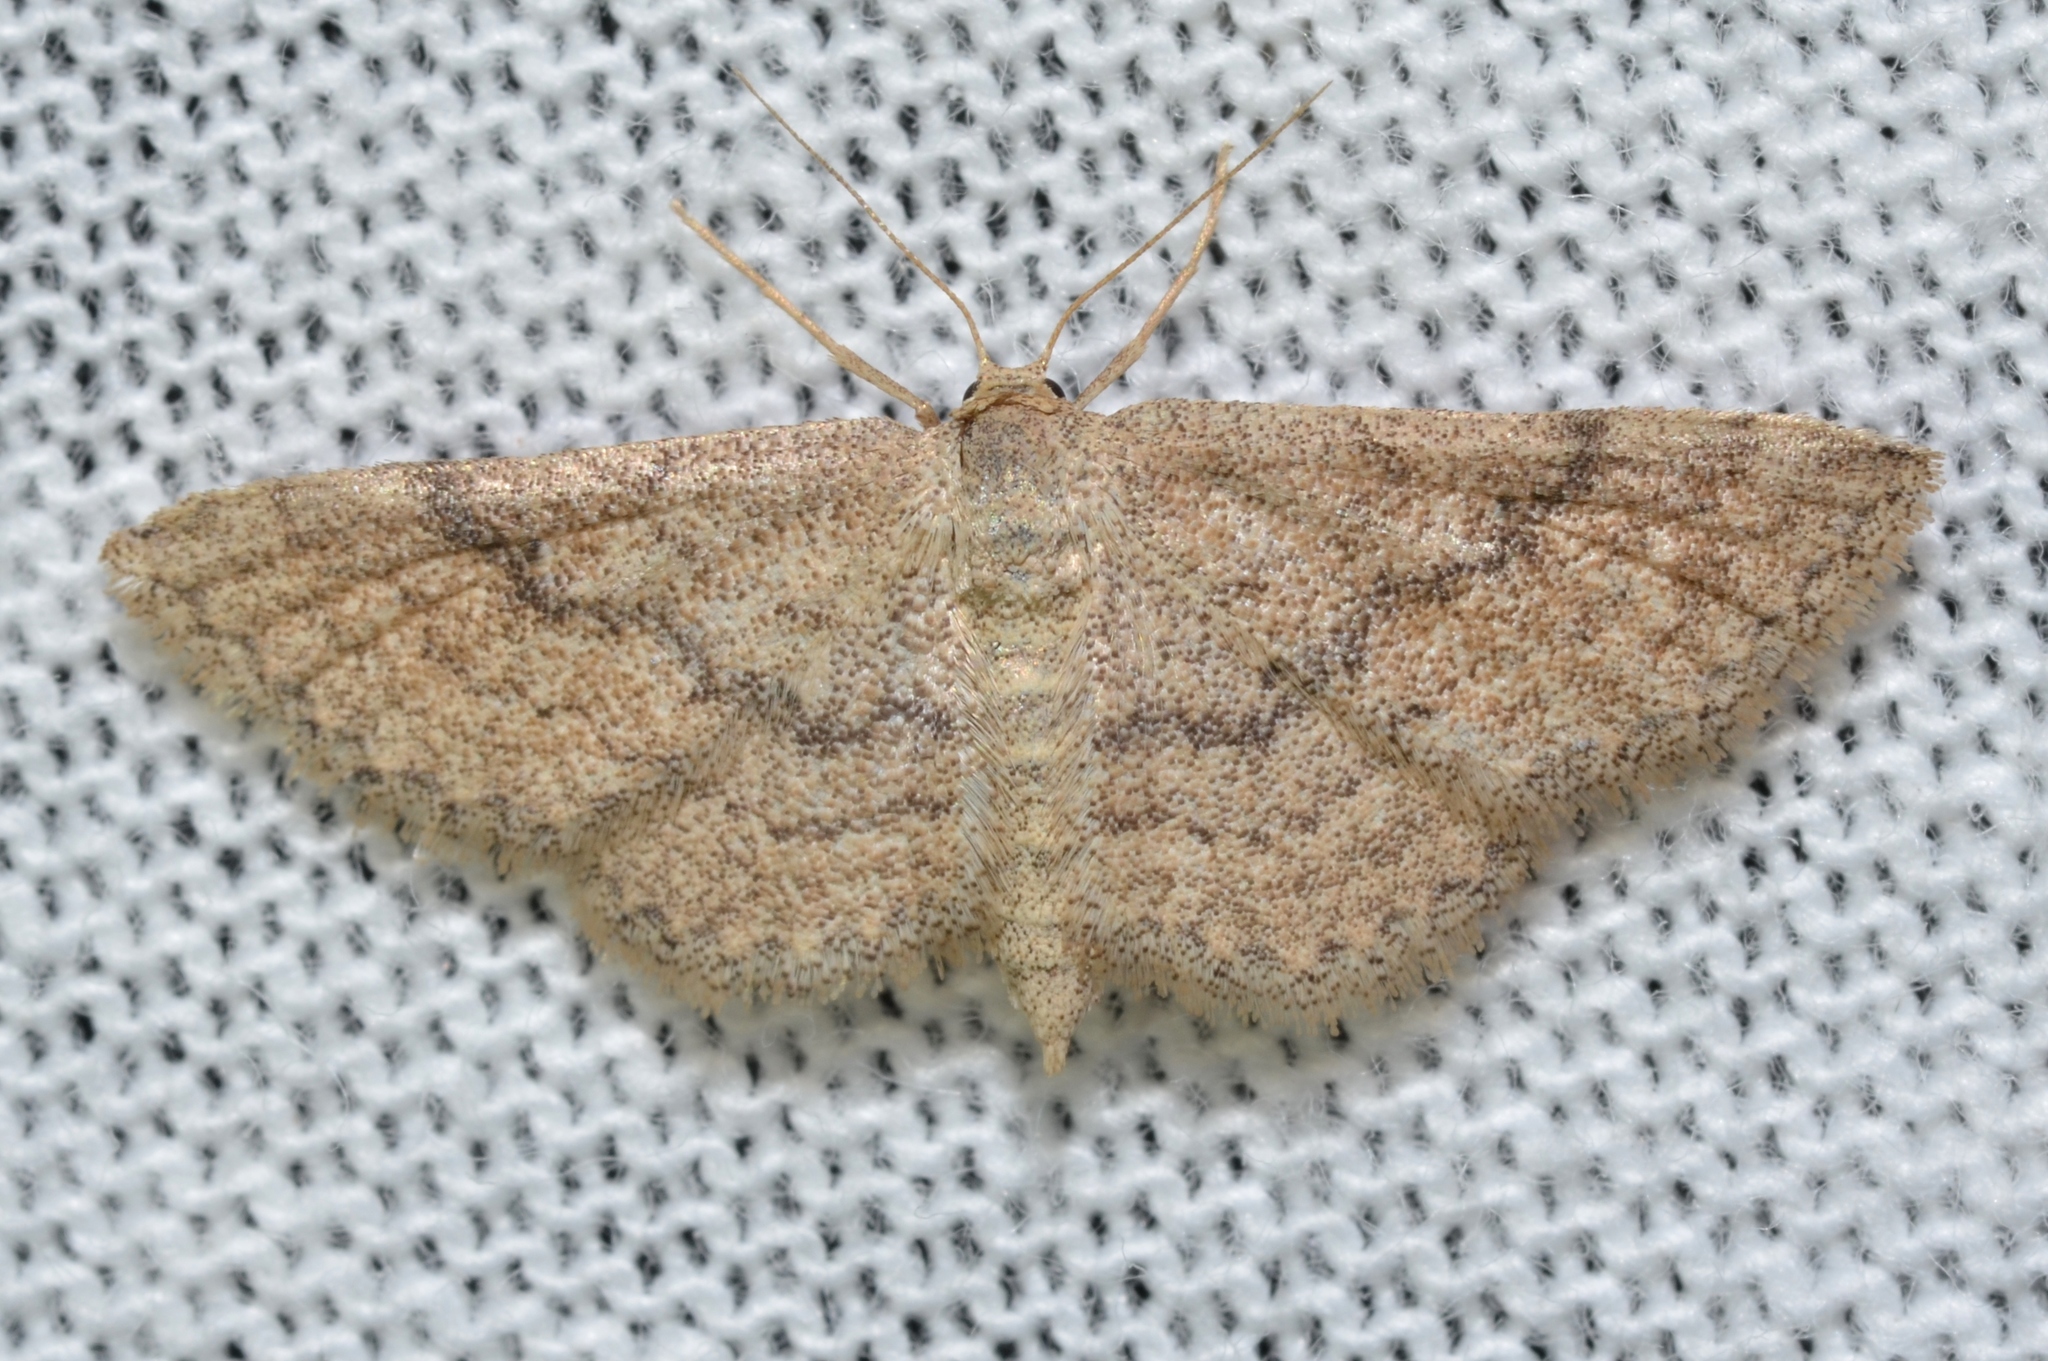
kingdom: Animalia
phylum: Arthropoda
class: Insecta
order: Lepidoptera
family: Geometridae
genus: Lobocleta
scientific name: Lobocleta ossularia
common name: Drab brown wave
